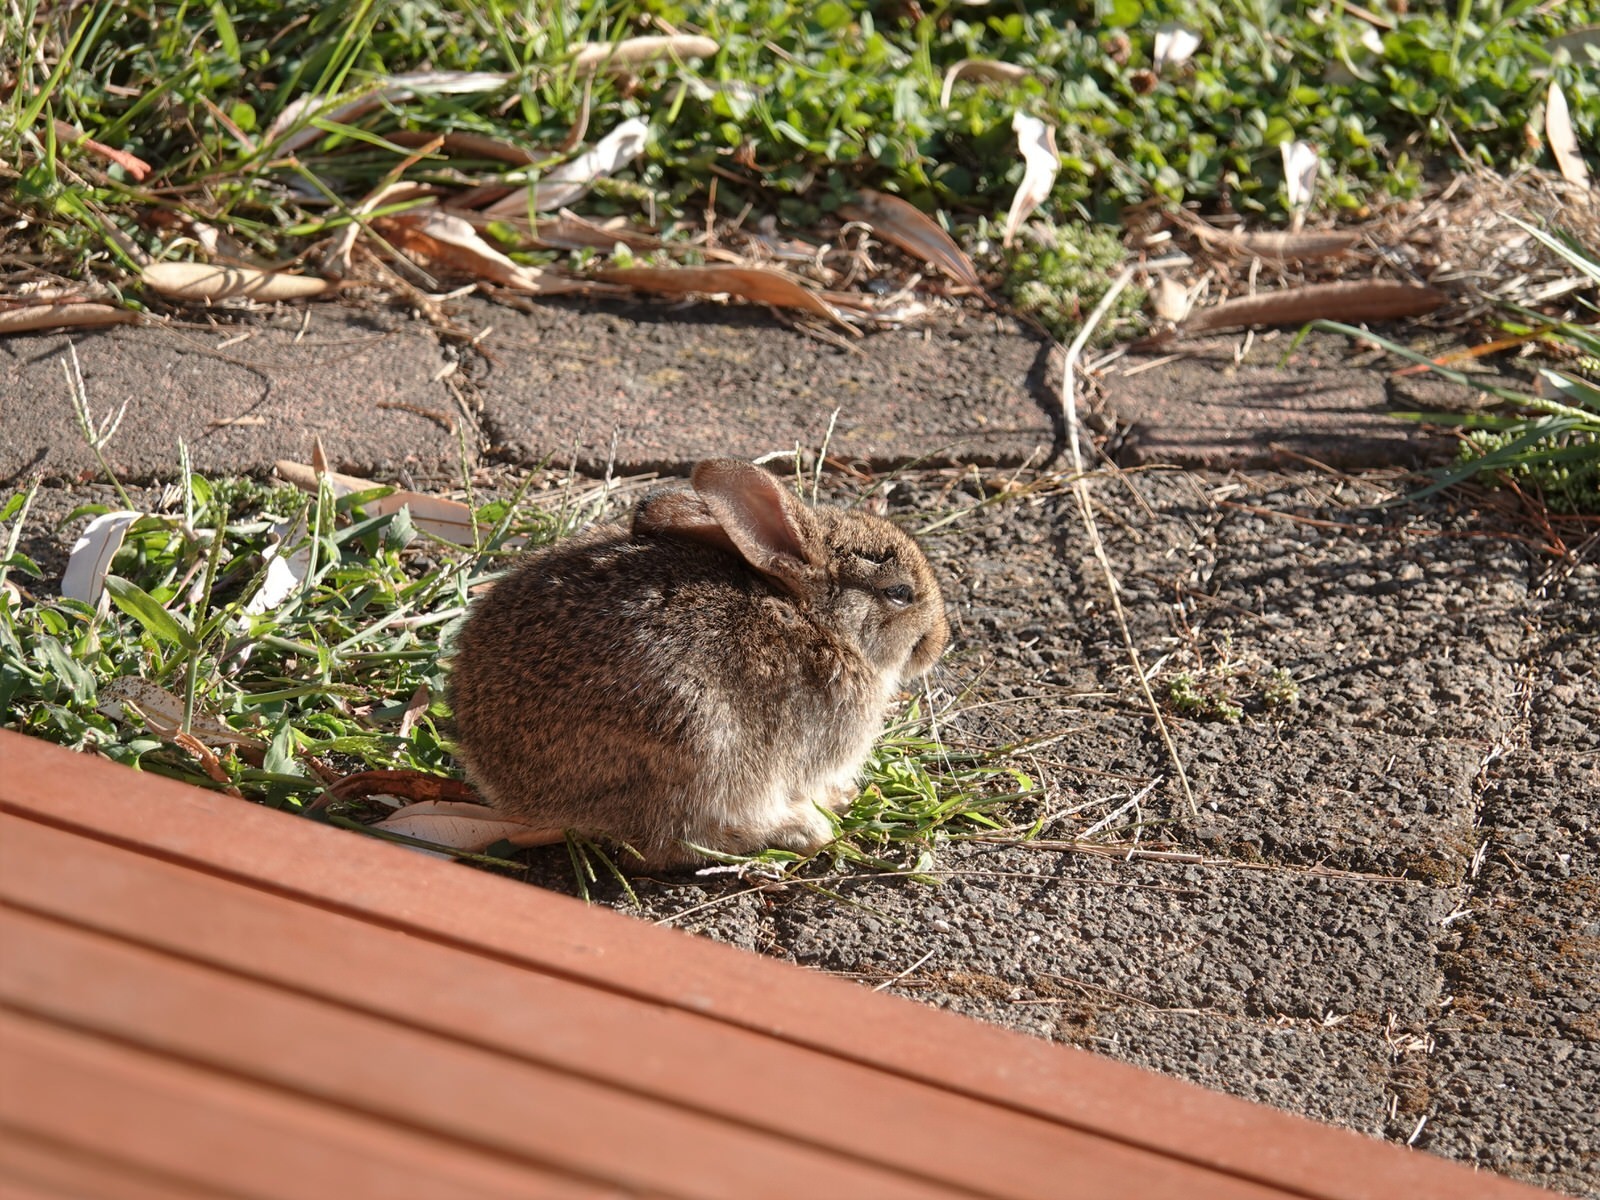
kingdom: Animalia
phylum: Chordata
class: Mammalia
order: Lagomorpha
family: Leporidae
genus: Oryctolagus
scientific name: Oryctolagus cuniculus
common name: European rabbit
